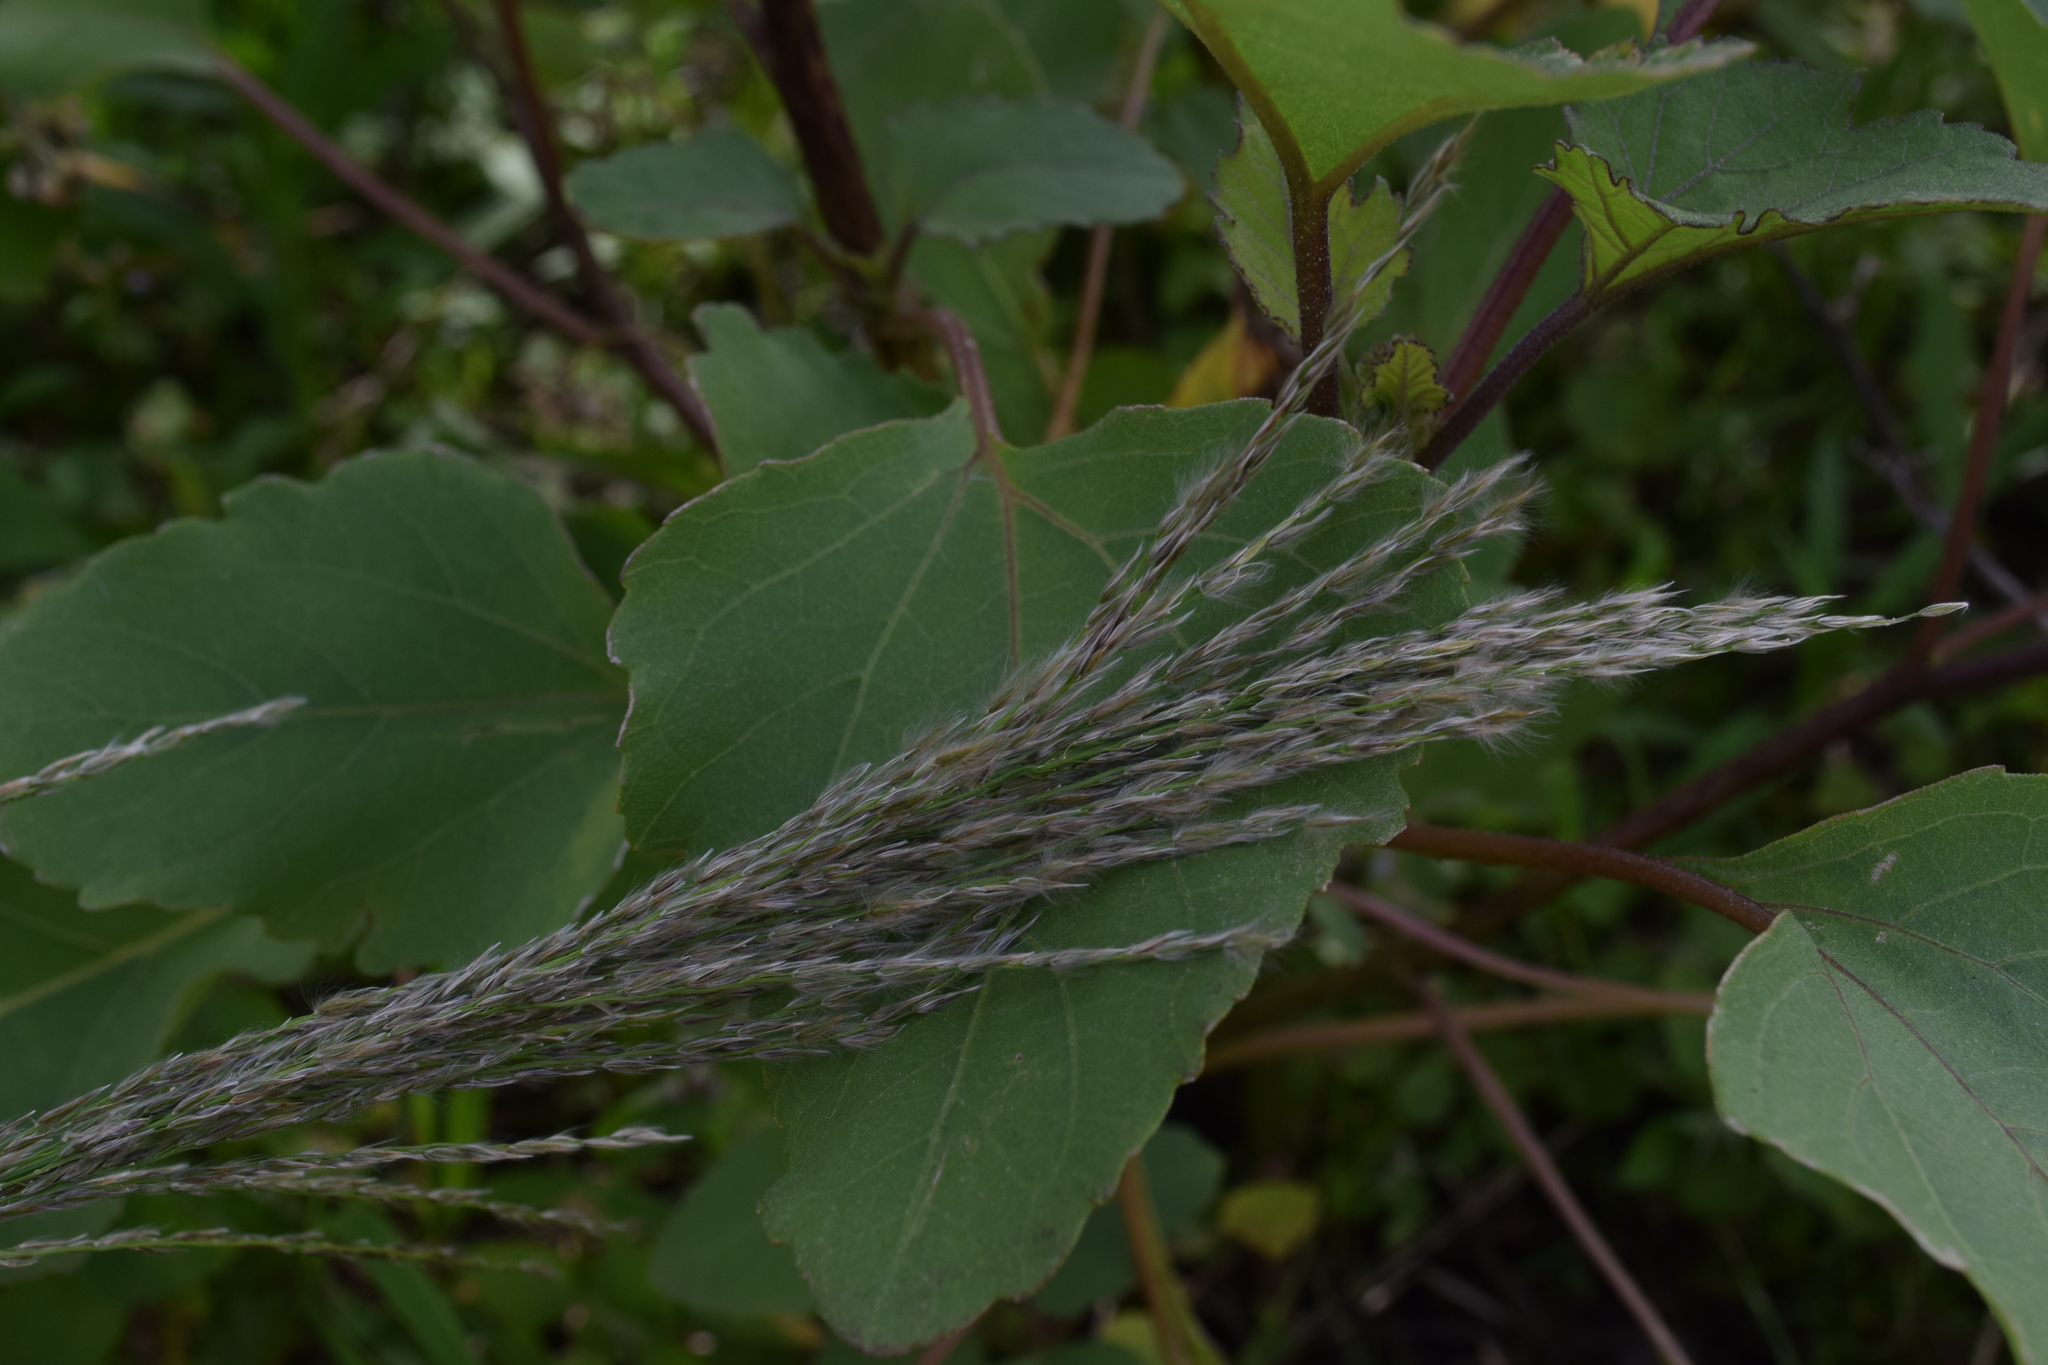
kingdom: Plantae
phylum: Tracheophyta
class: Liliopsida
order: Poales
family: Poaceae
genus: Digitaria
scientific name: Digitaria insularis
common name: Sourgrass
